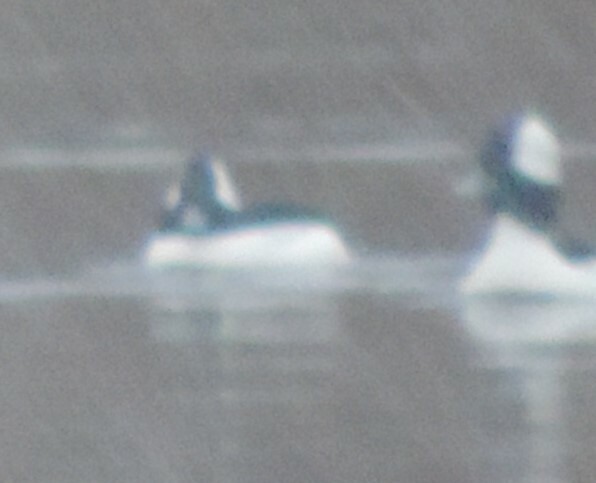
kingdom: Animalia
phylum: Chordata
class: Aves
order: Anseriformes
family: Anatidae
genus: Bucephala
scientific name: Bucephala albeola
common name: Bufflehead
